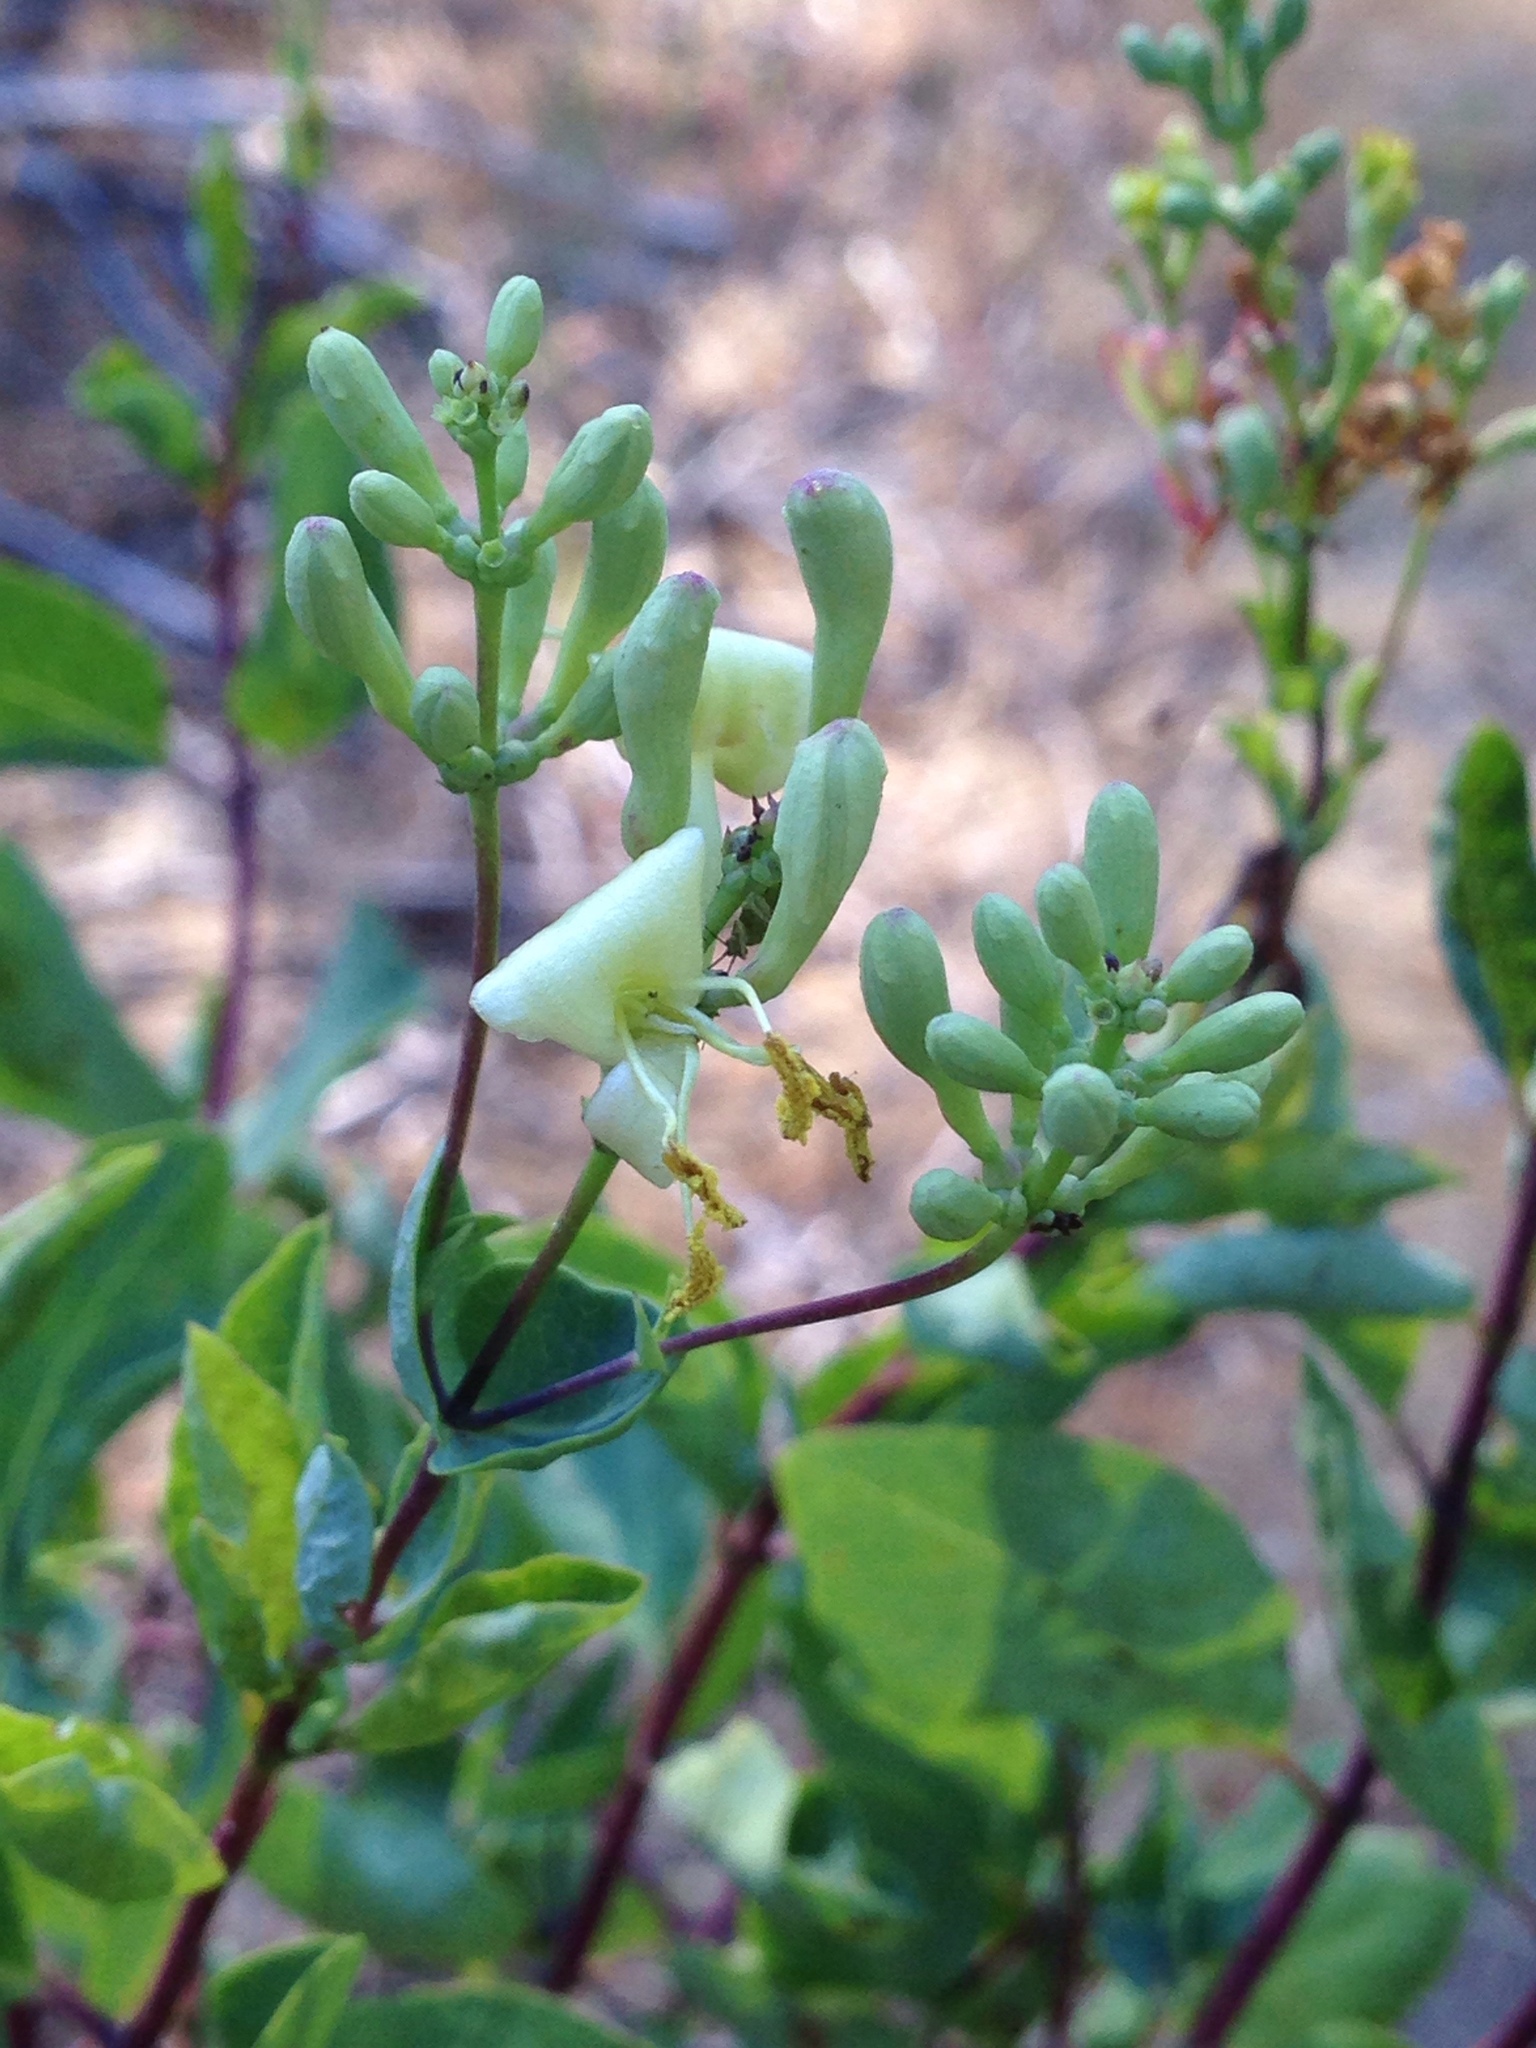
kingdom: Plantae
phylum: Tracheophyta
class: Magnoliopsida
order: Dipsacales
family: Caprifoliaceae
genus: Lonicera
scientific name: Lonicera interrupta
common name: Chaparral honeysuckle
